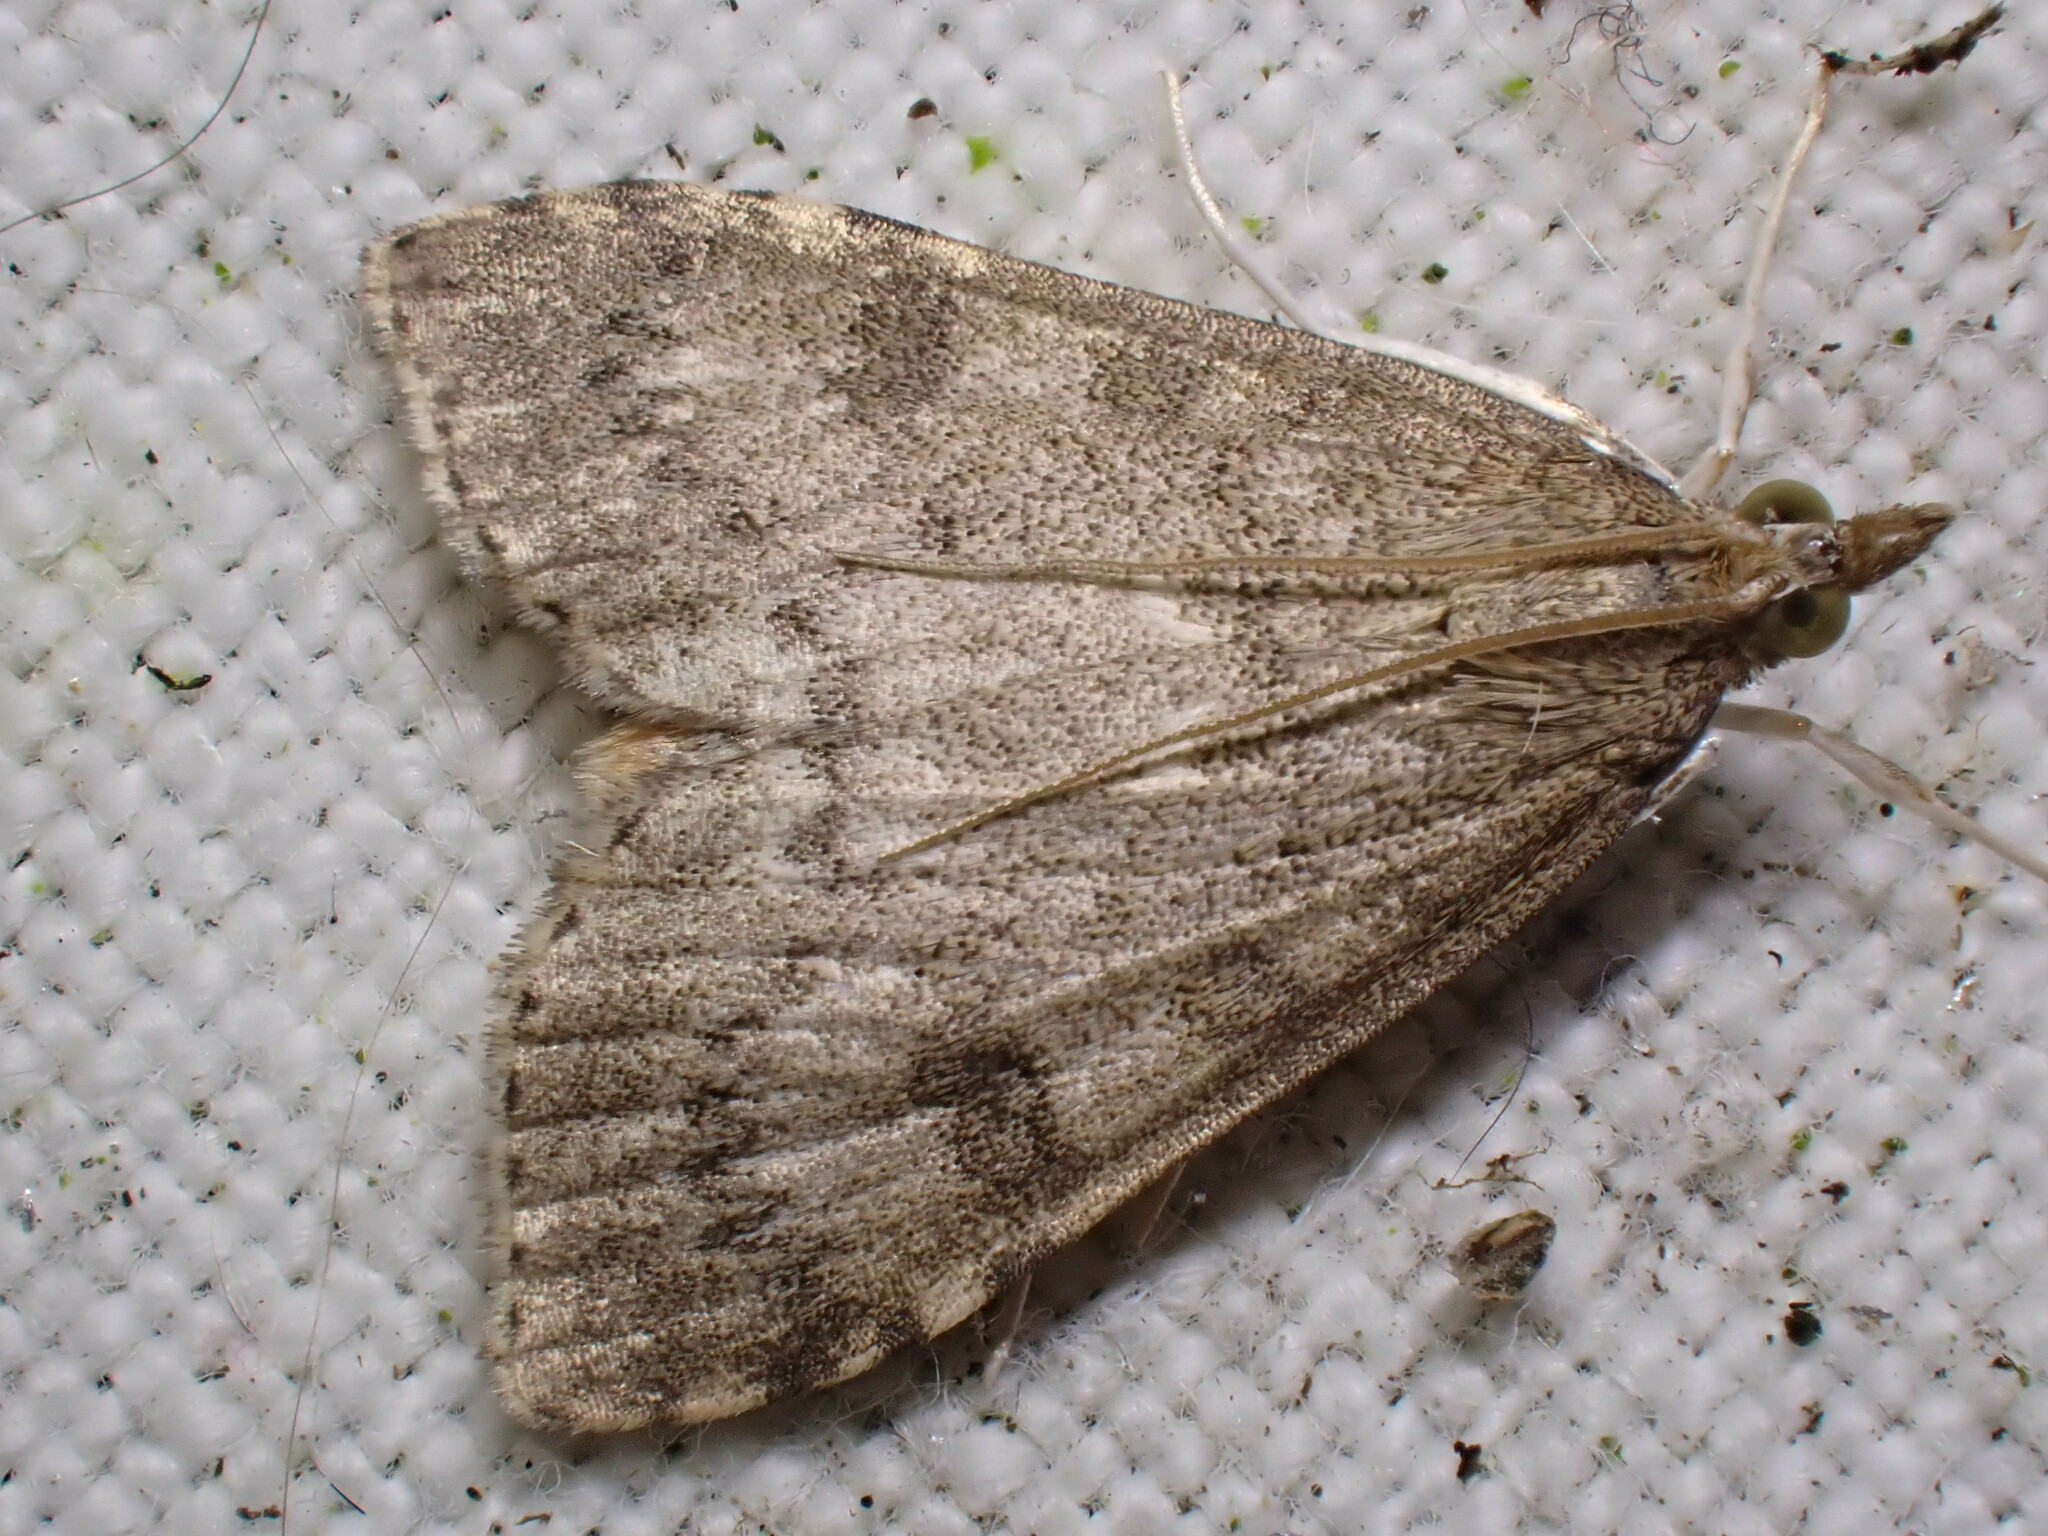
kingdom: Animalia
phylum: Arthropoda
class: Insecta
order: Lepidoptera
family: Crambidae
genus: Udea
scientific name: Udea prunalis
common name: Dusky pearl
